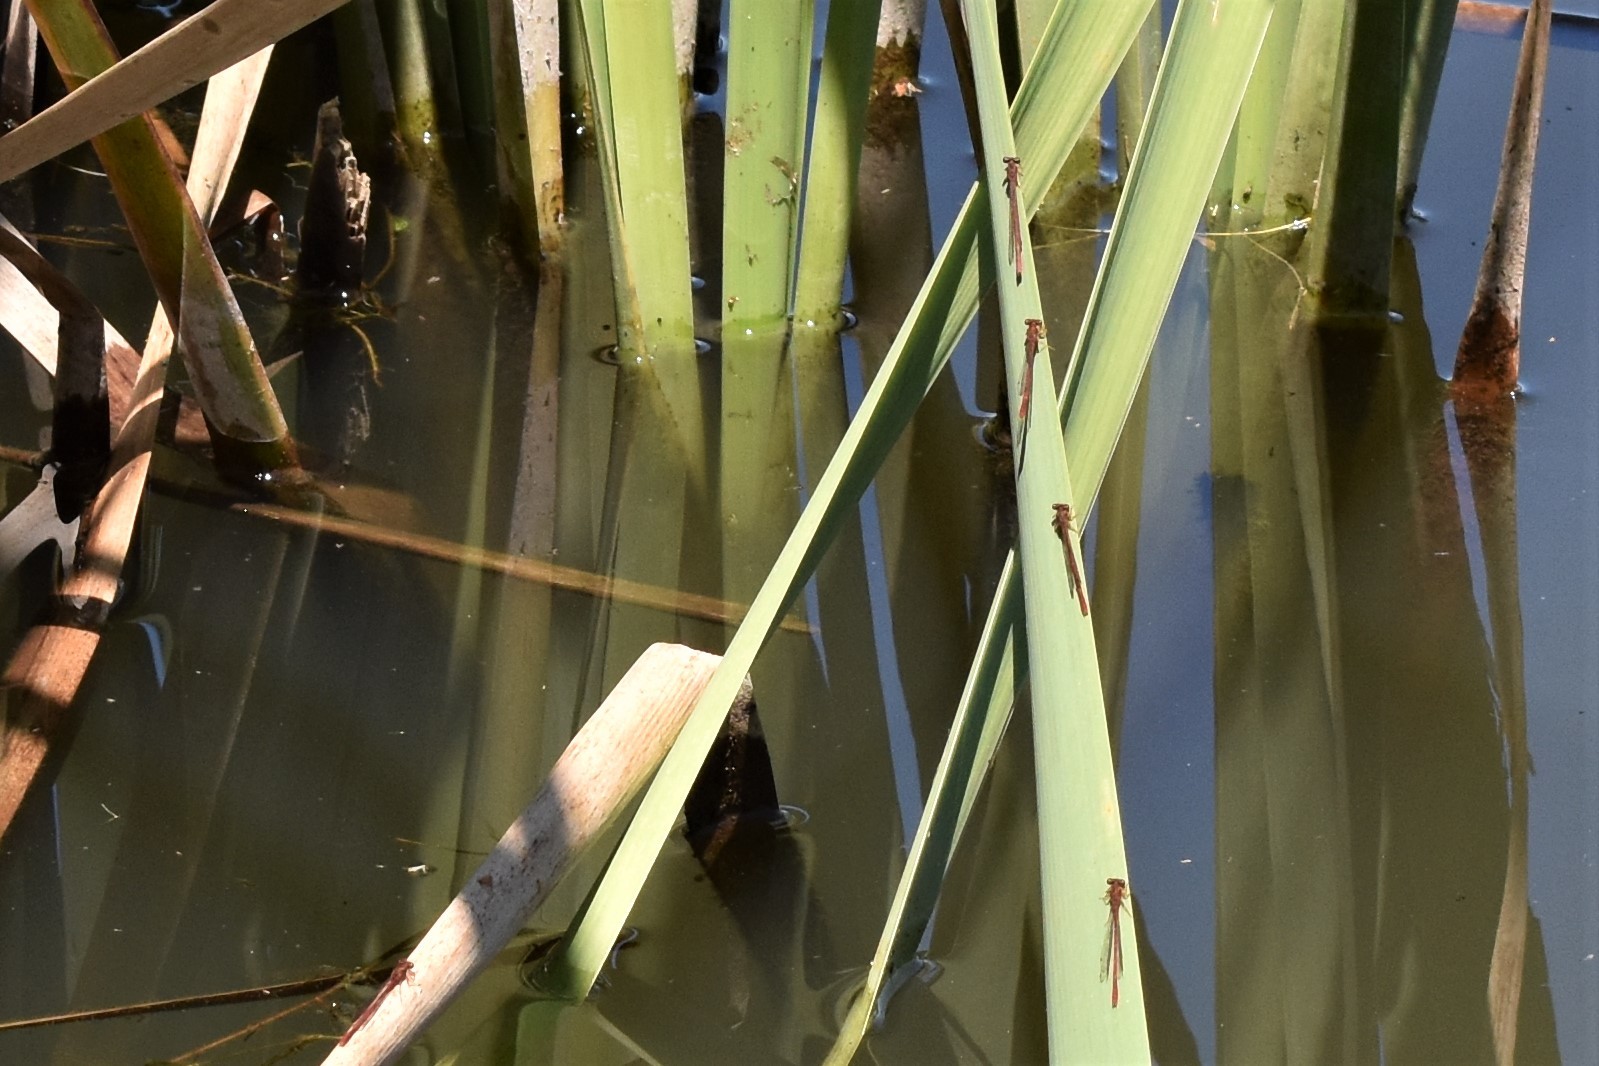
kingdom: Animalia
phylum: Arthropoda
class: Insecta
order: Odonata
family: Coenagrionidae
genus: Xanthocnemis
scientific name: Xanthocnemis zealandica
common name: Common redcoat damselfly
